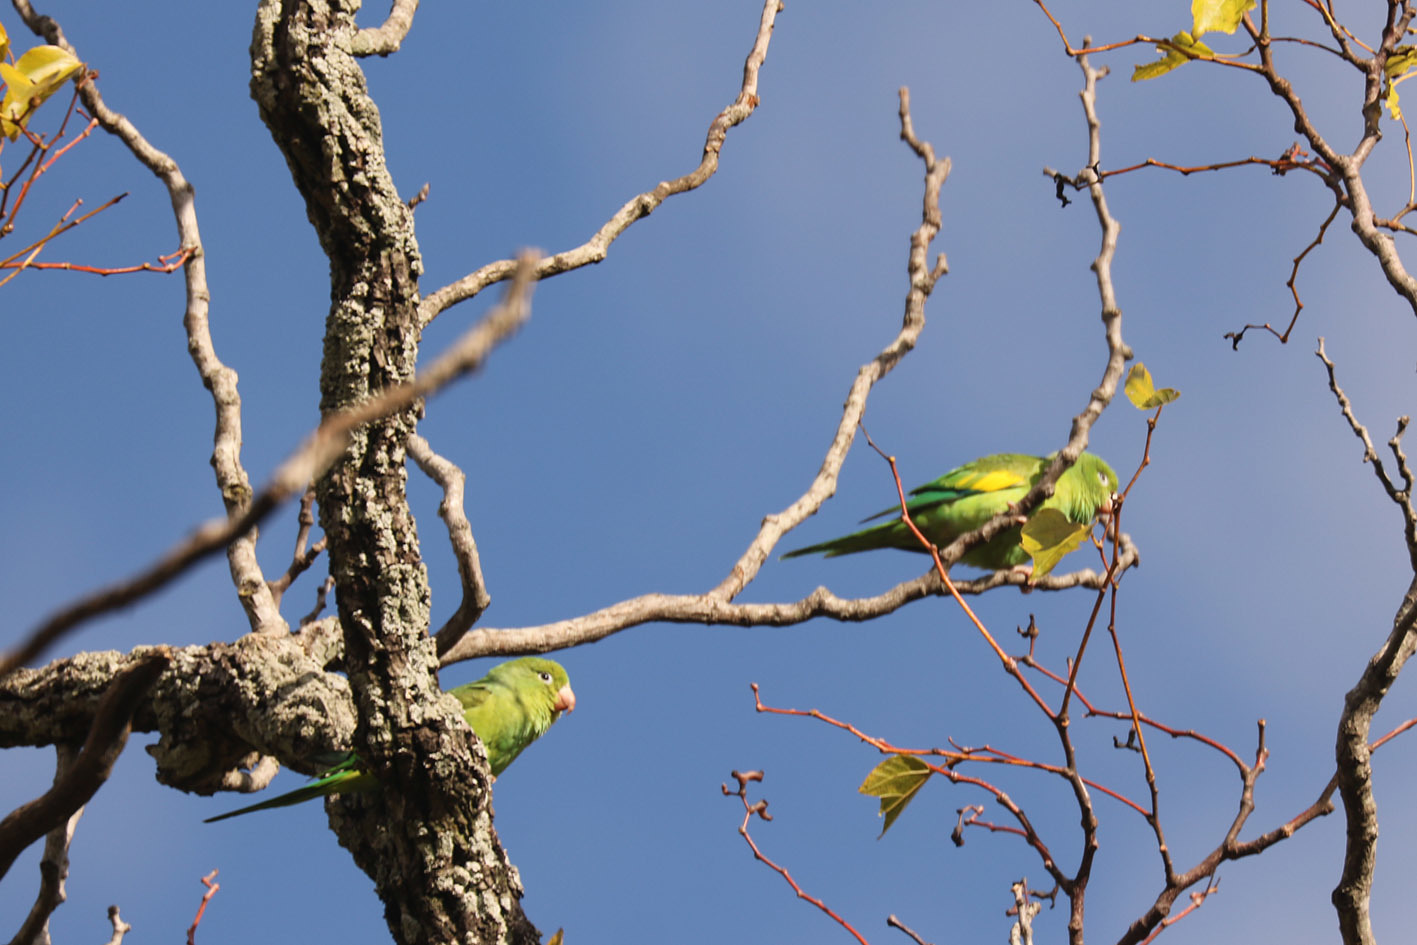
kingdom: Animalia
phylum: Chordata
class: Aves
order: Psittaciformes
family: Psittacidae
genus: Brotogeris
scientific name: Brotogeris chiriri
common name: Yellow-chevroned parakeet
